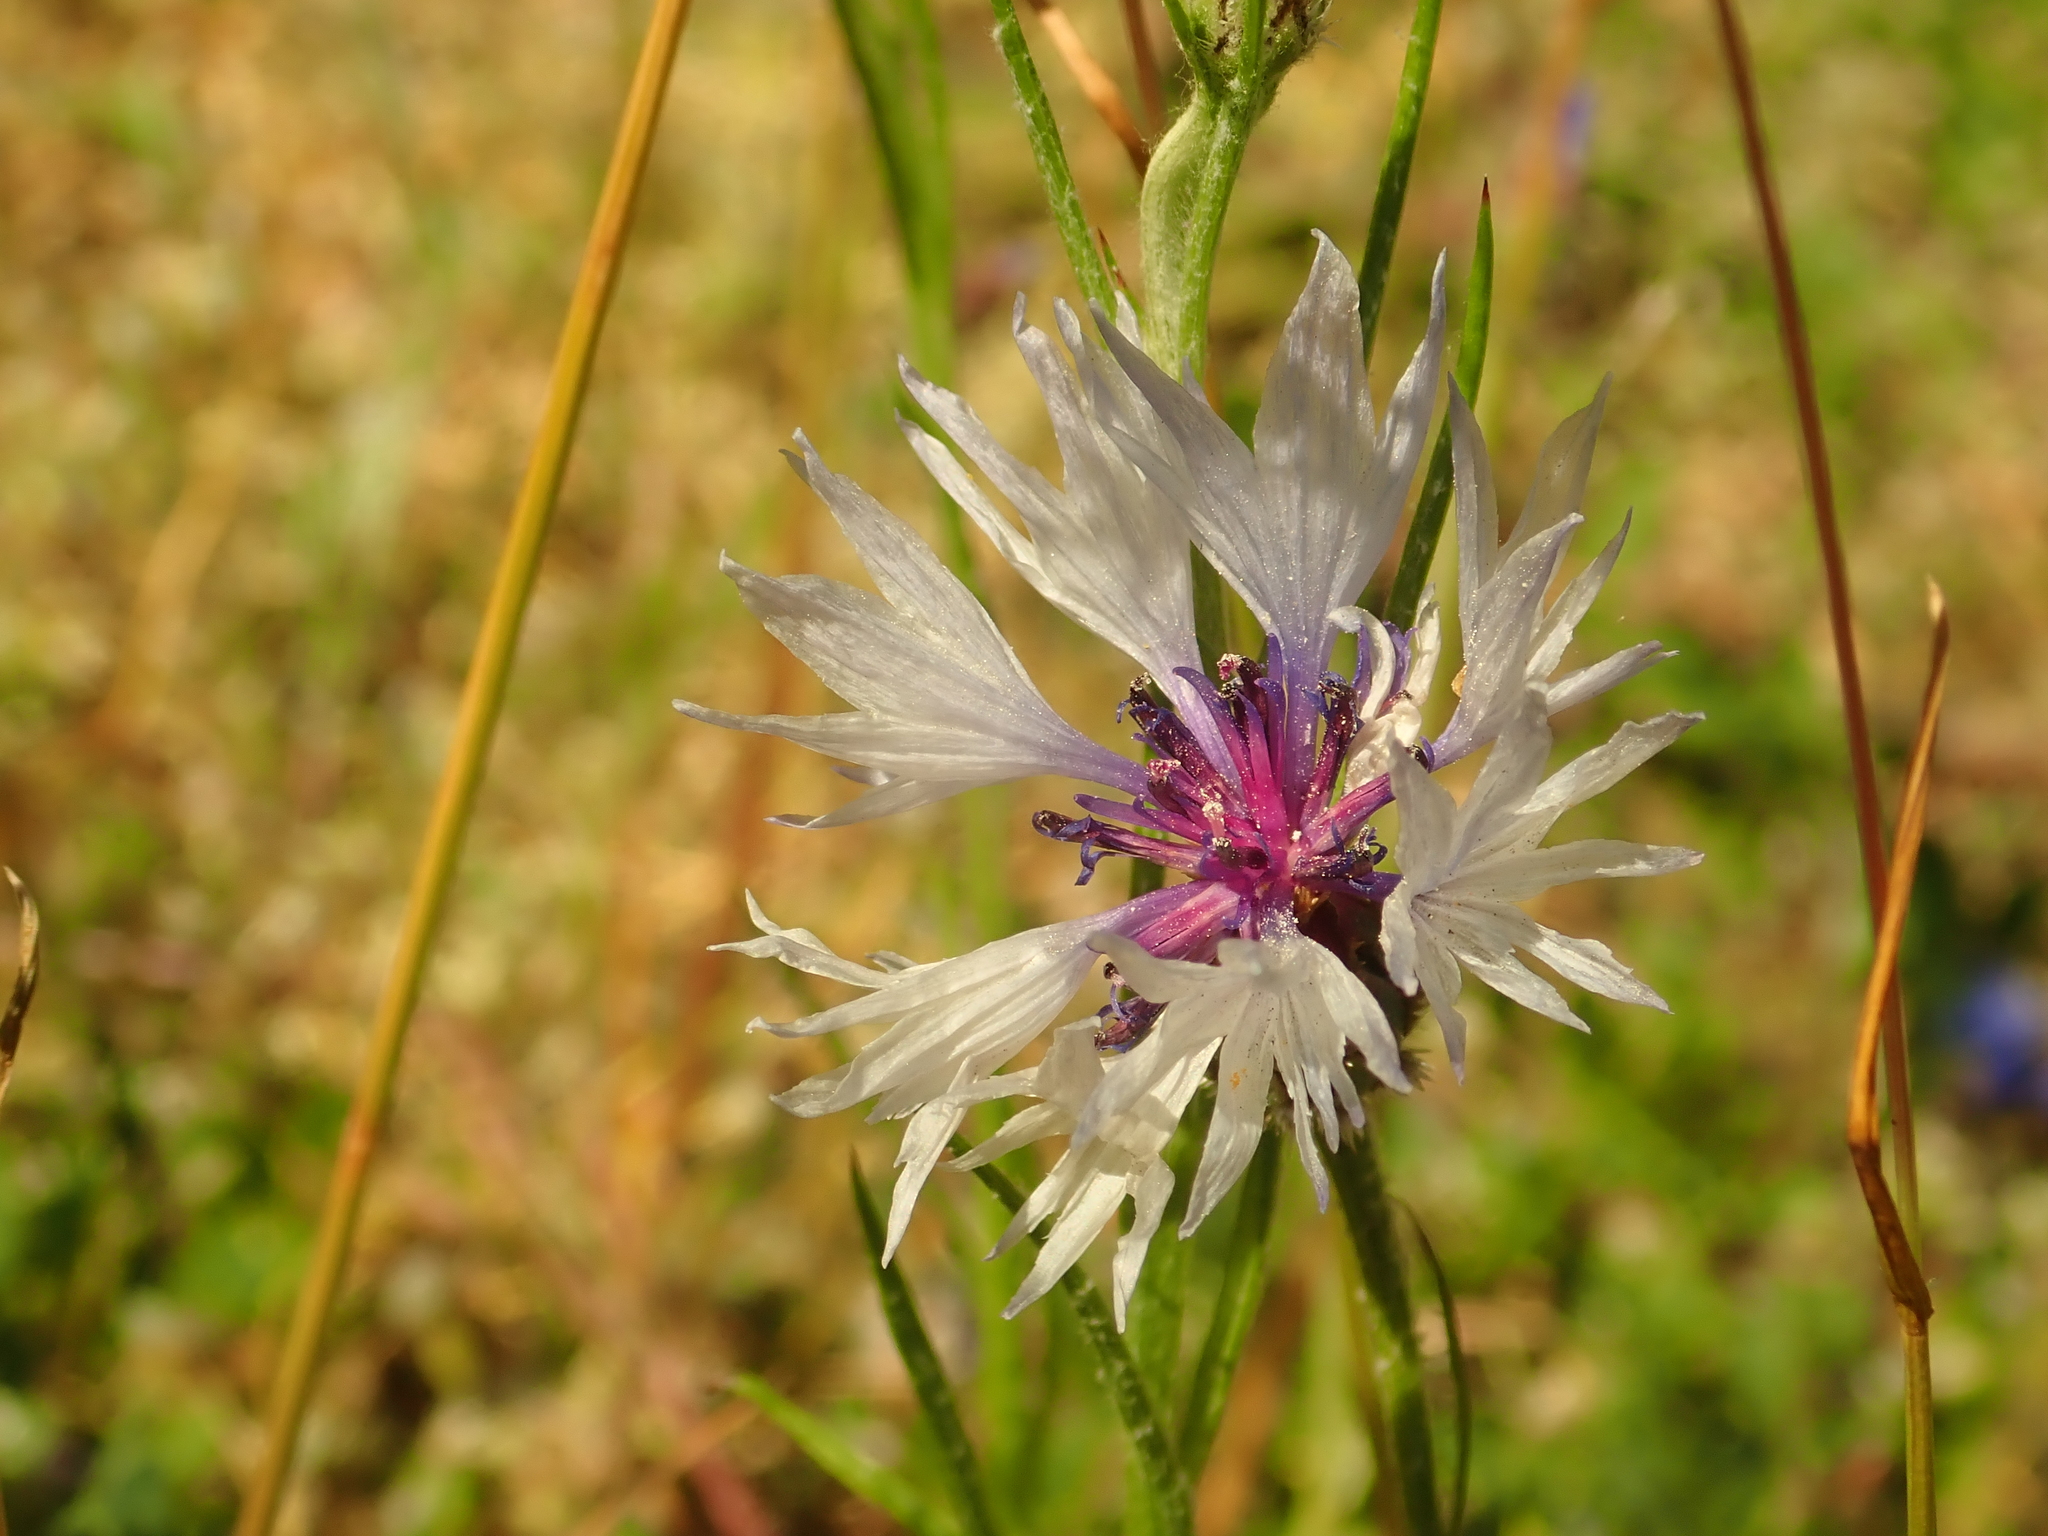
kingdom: Plantae
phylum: Tracheophyta
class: Magnoliopsida
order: Asterales
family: Asteraceae
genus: Centaurea
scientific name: Centaurea cyanus
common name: Cornflower
